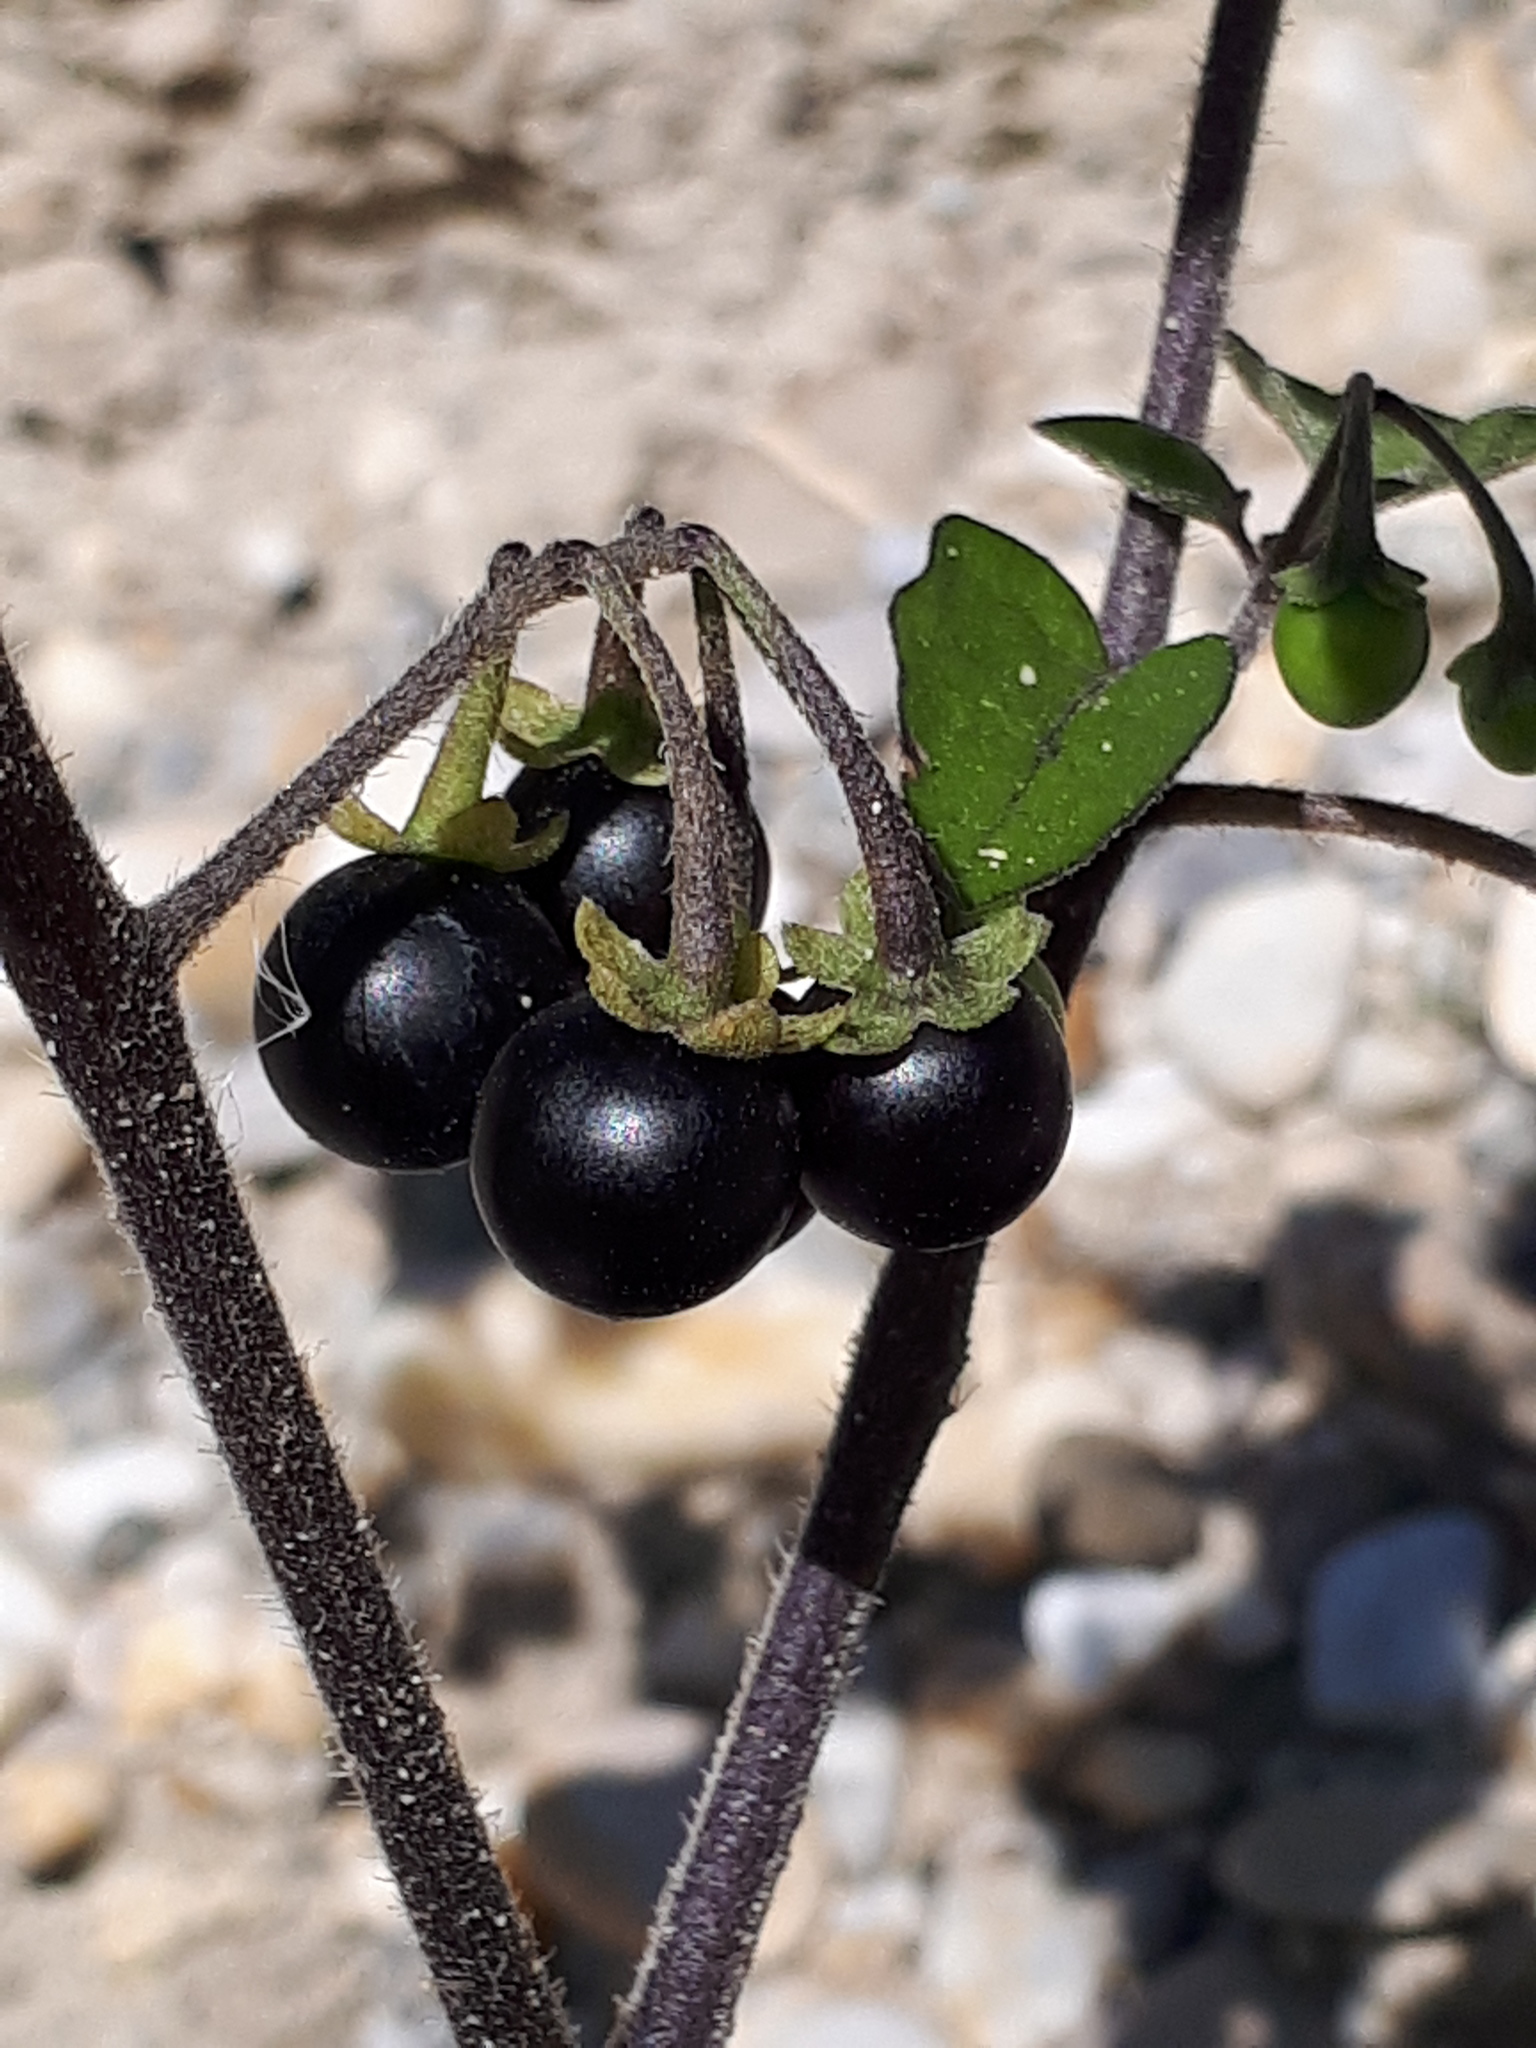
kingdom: Plantae
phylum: Tracheophyta
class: Magnoliopsida
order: Solanales
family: Solanaceae
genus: Solanum
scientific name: Solanum nigrum
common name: Black nightshade
